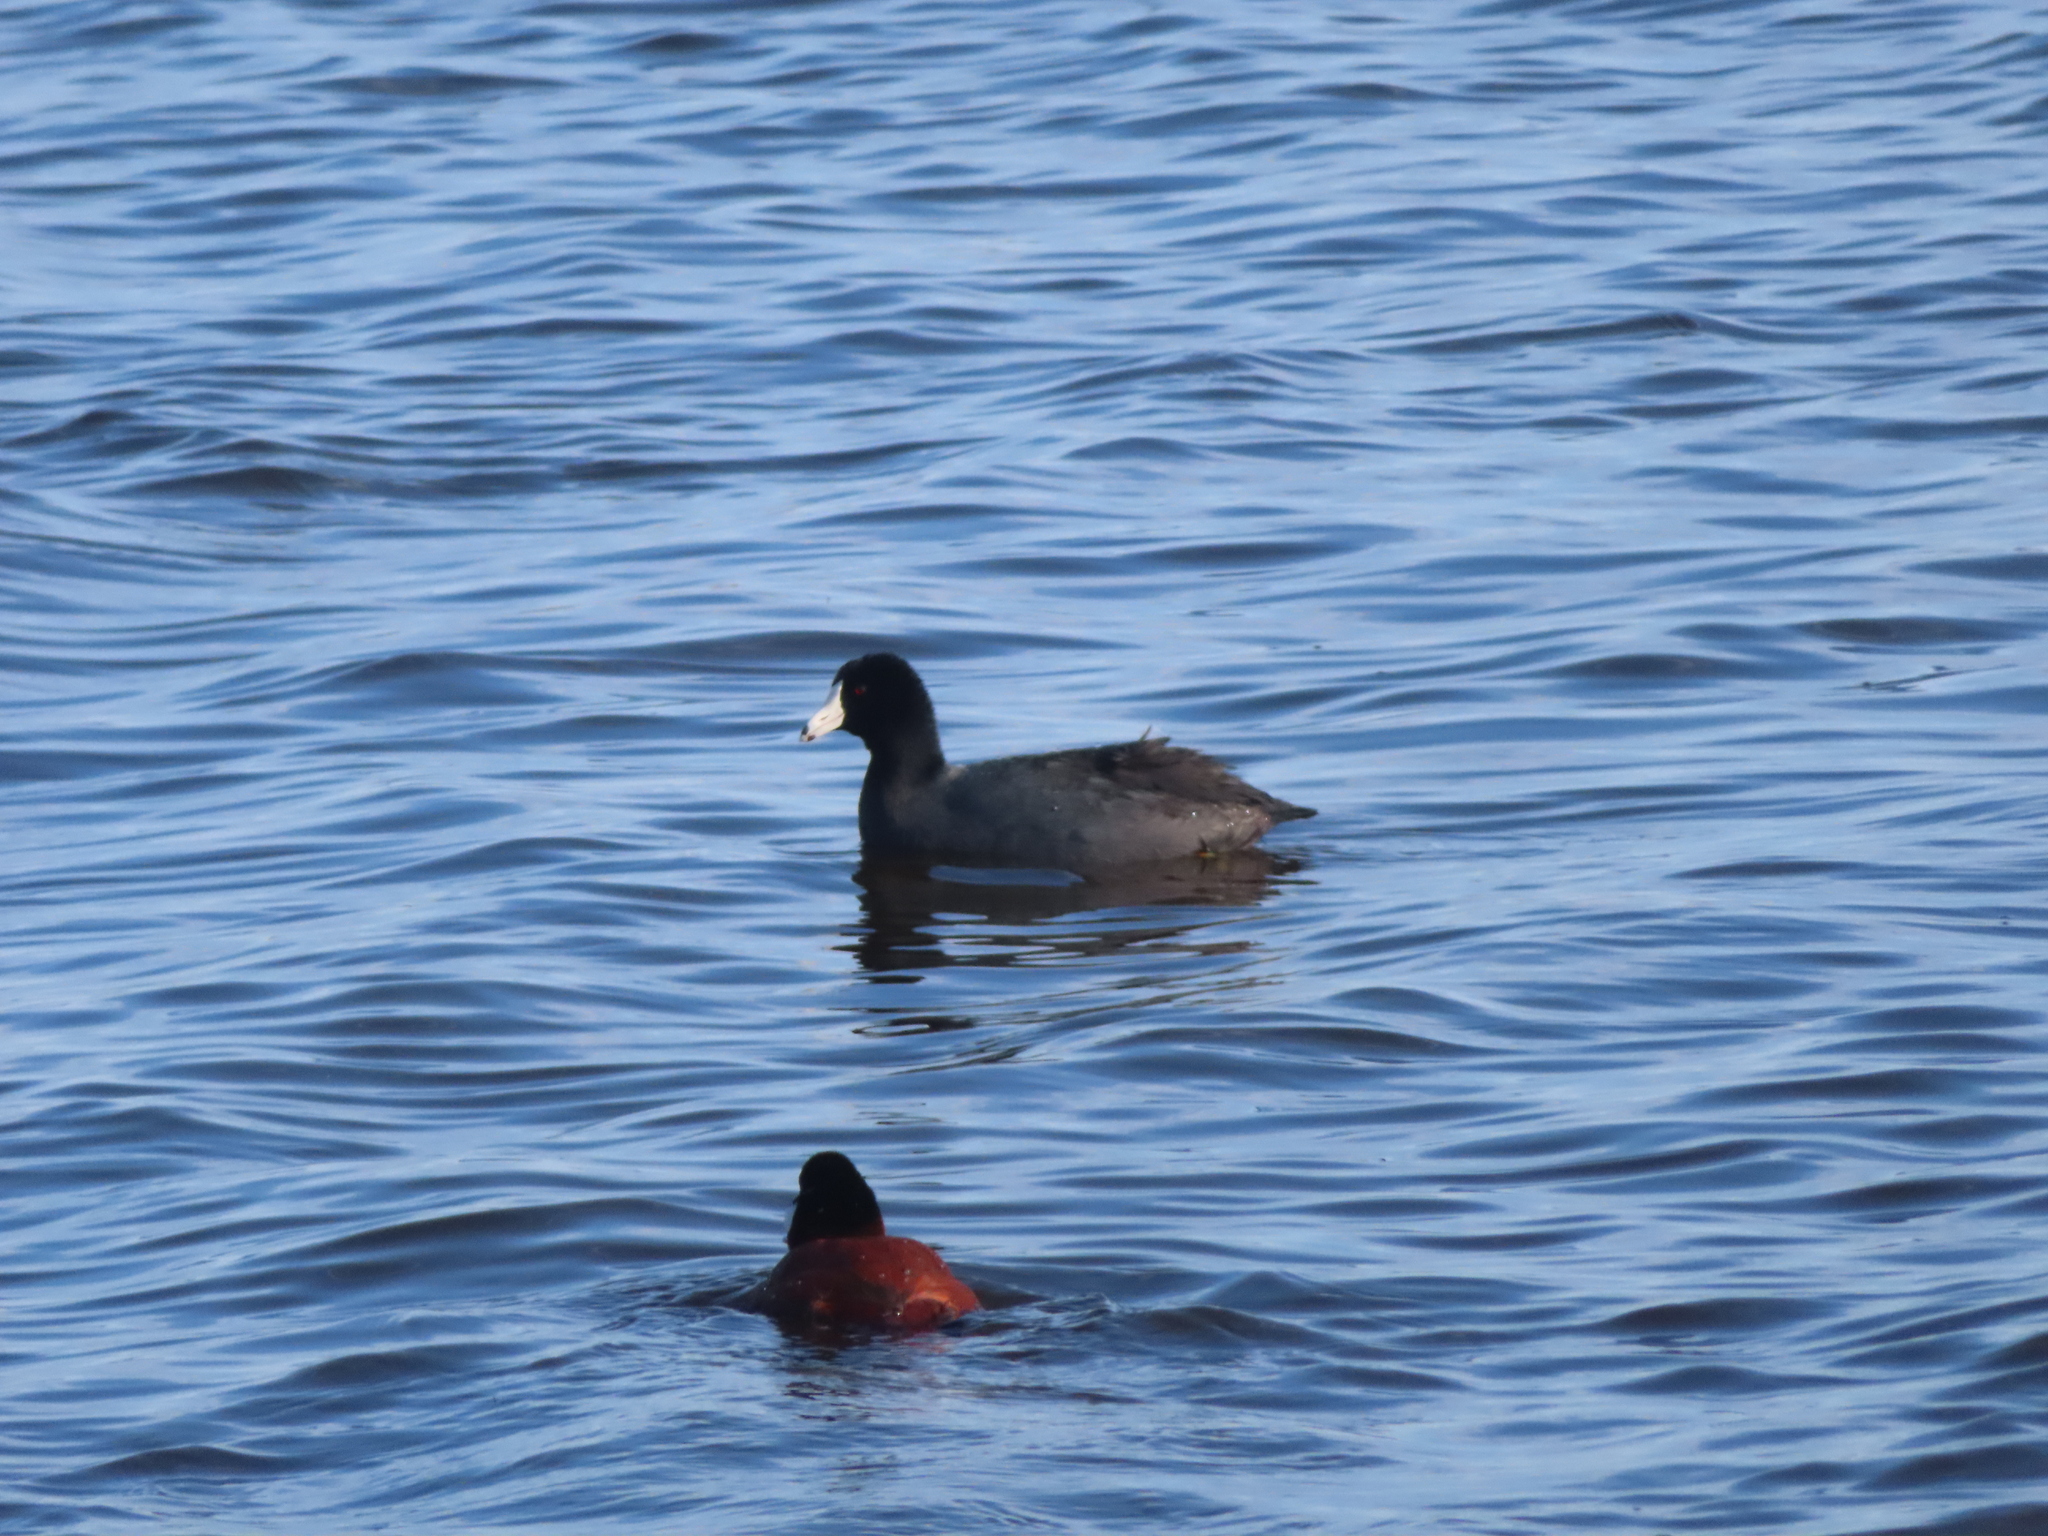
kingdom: Animalia
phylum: Chordata
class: Aves
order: Gruiformes
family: Rallidae
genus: Fulica
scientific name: Fulica americana
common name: American coot
